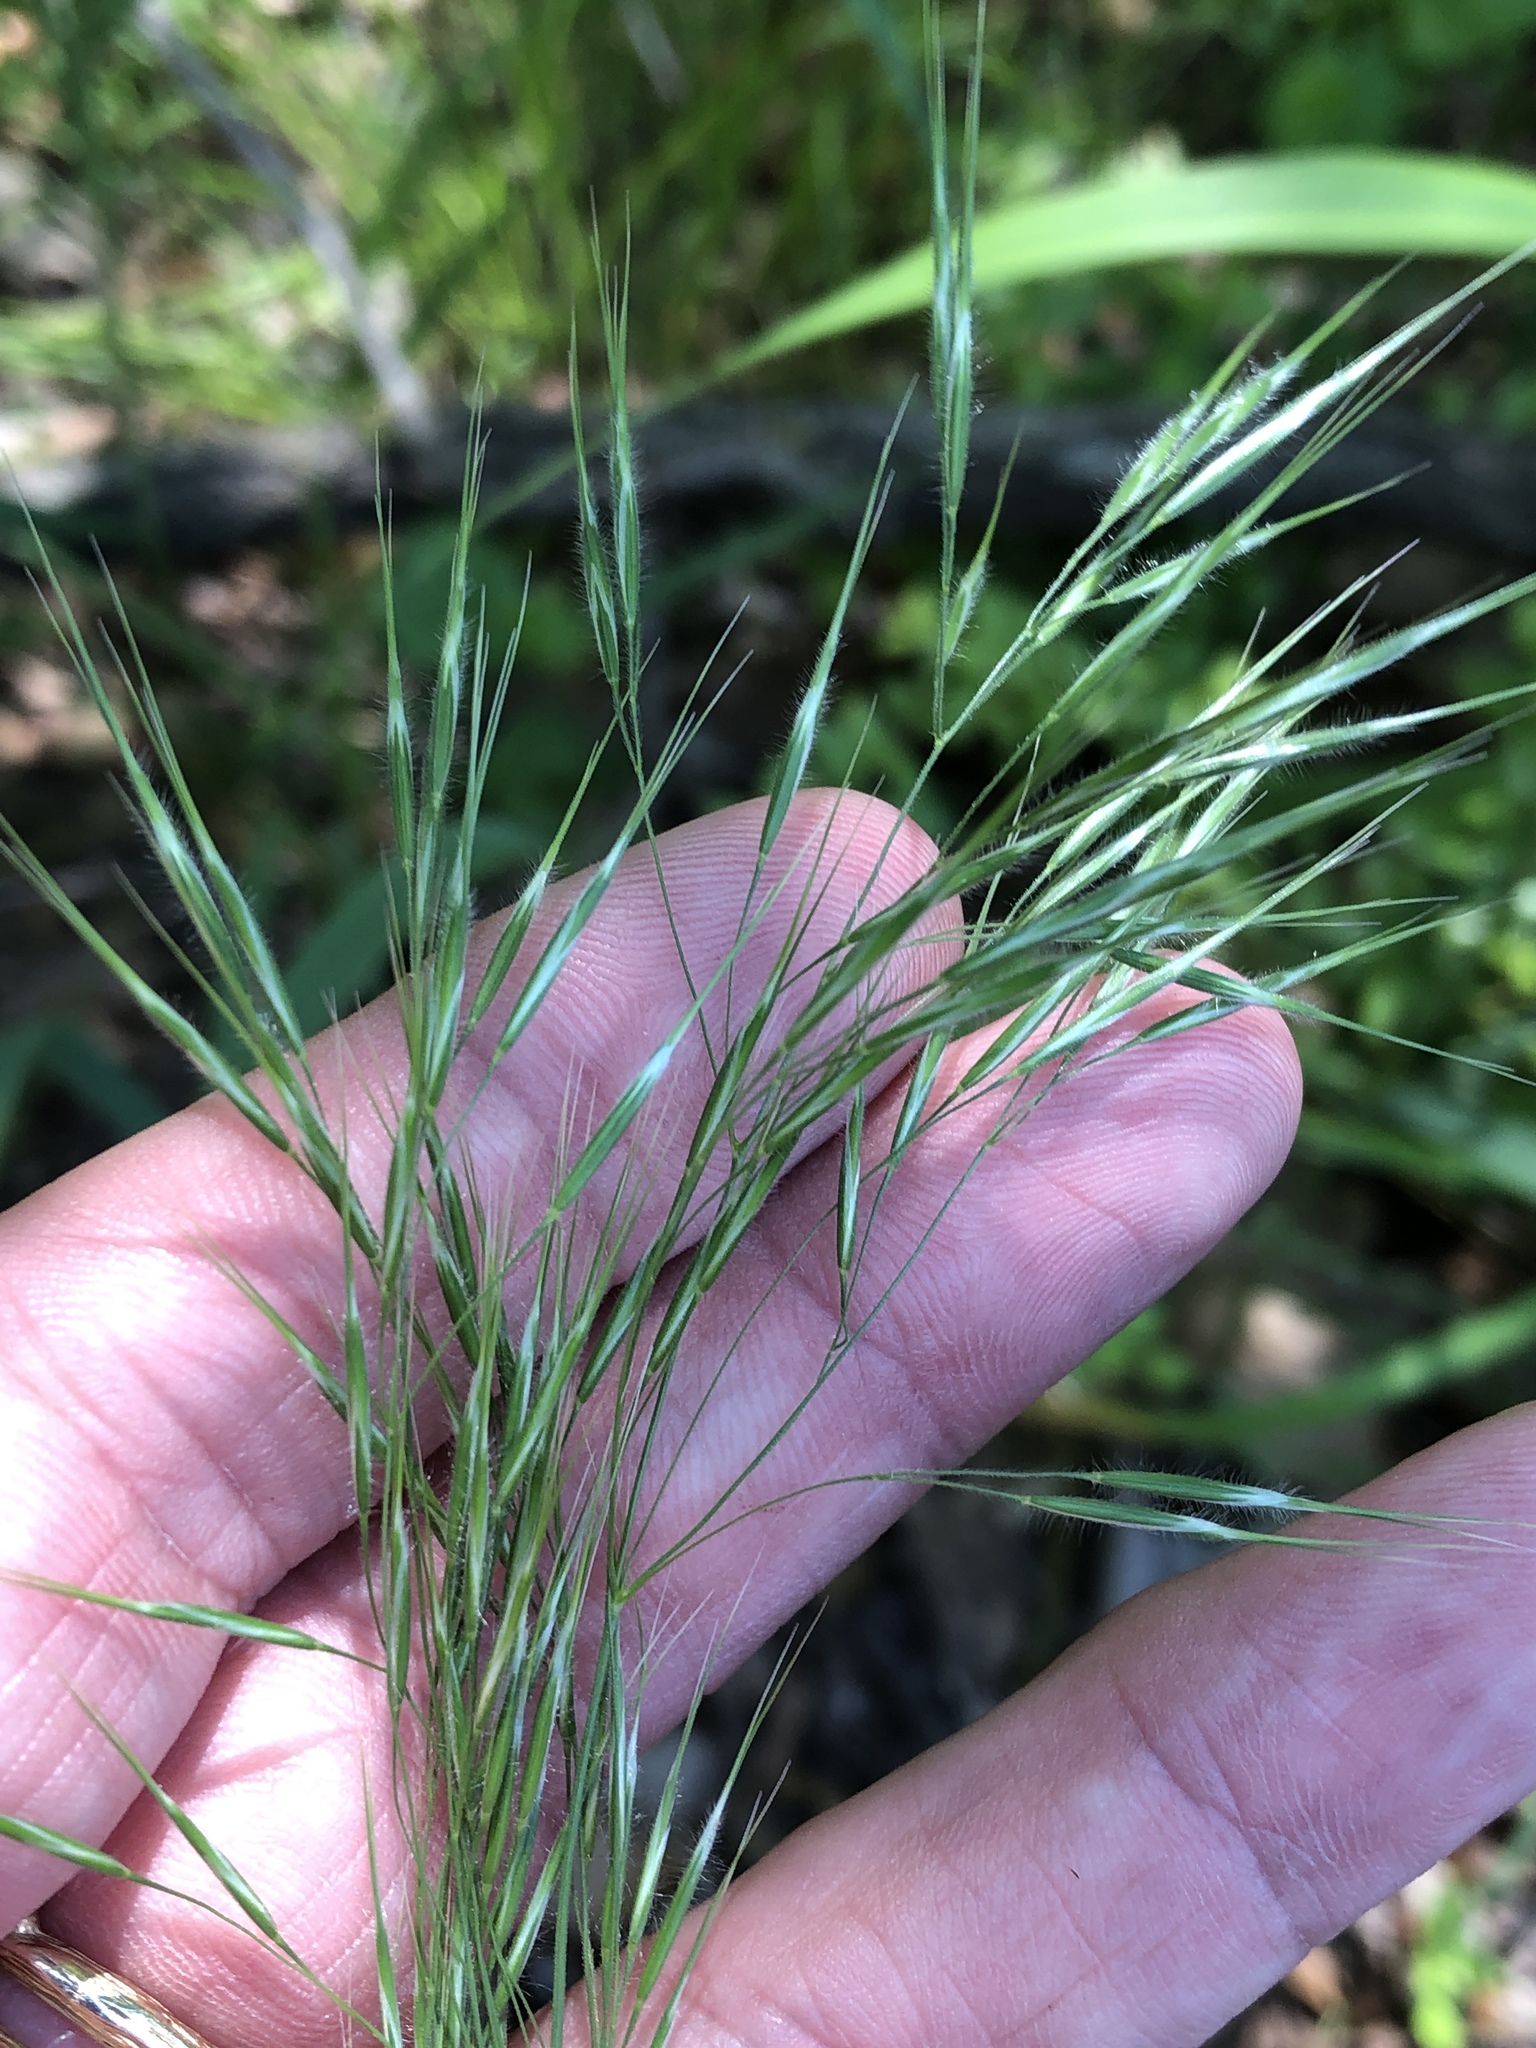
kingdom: Plantae
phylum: Tracheophyta
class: Liliopsida
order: Poales
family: Poaceae
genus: Bromus
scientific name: Bromus tectorum
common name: Cheatgrass
